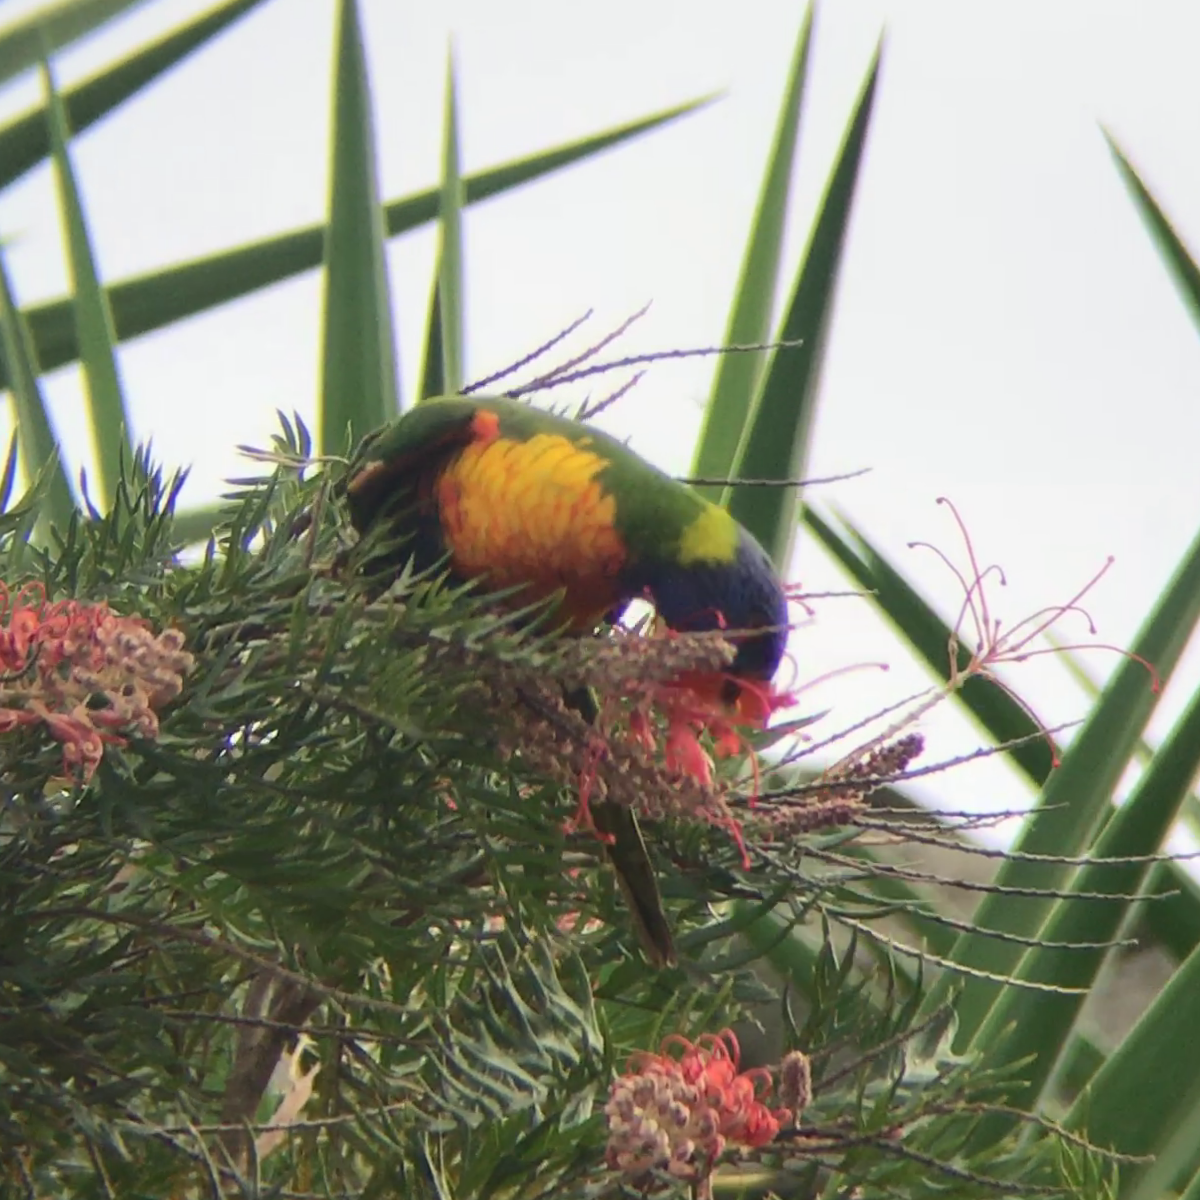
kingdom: Animalia
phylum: Chordata
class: Aves
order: Psittaciformes
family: Psittacidae
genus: Trichoglossus
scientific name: Trichoglossus haematodus
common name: Coconut lorikeet
